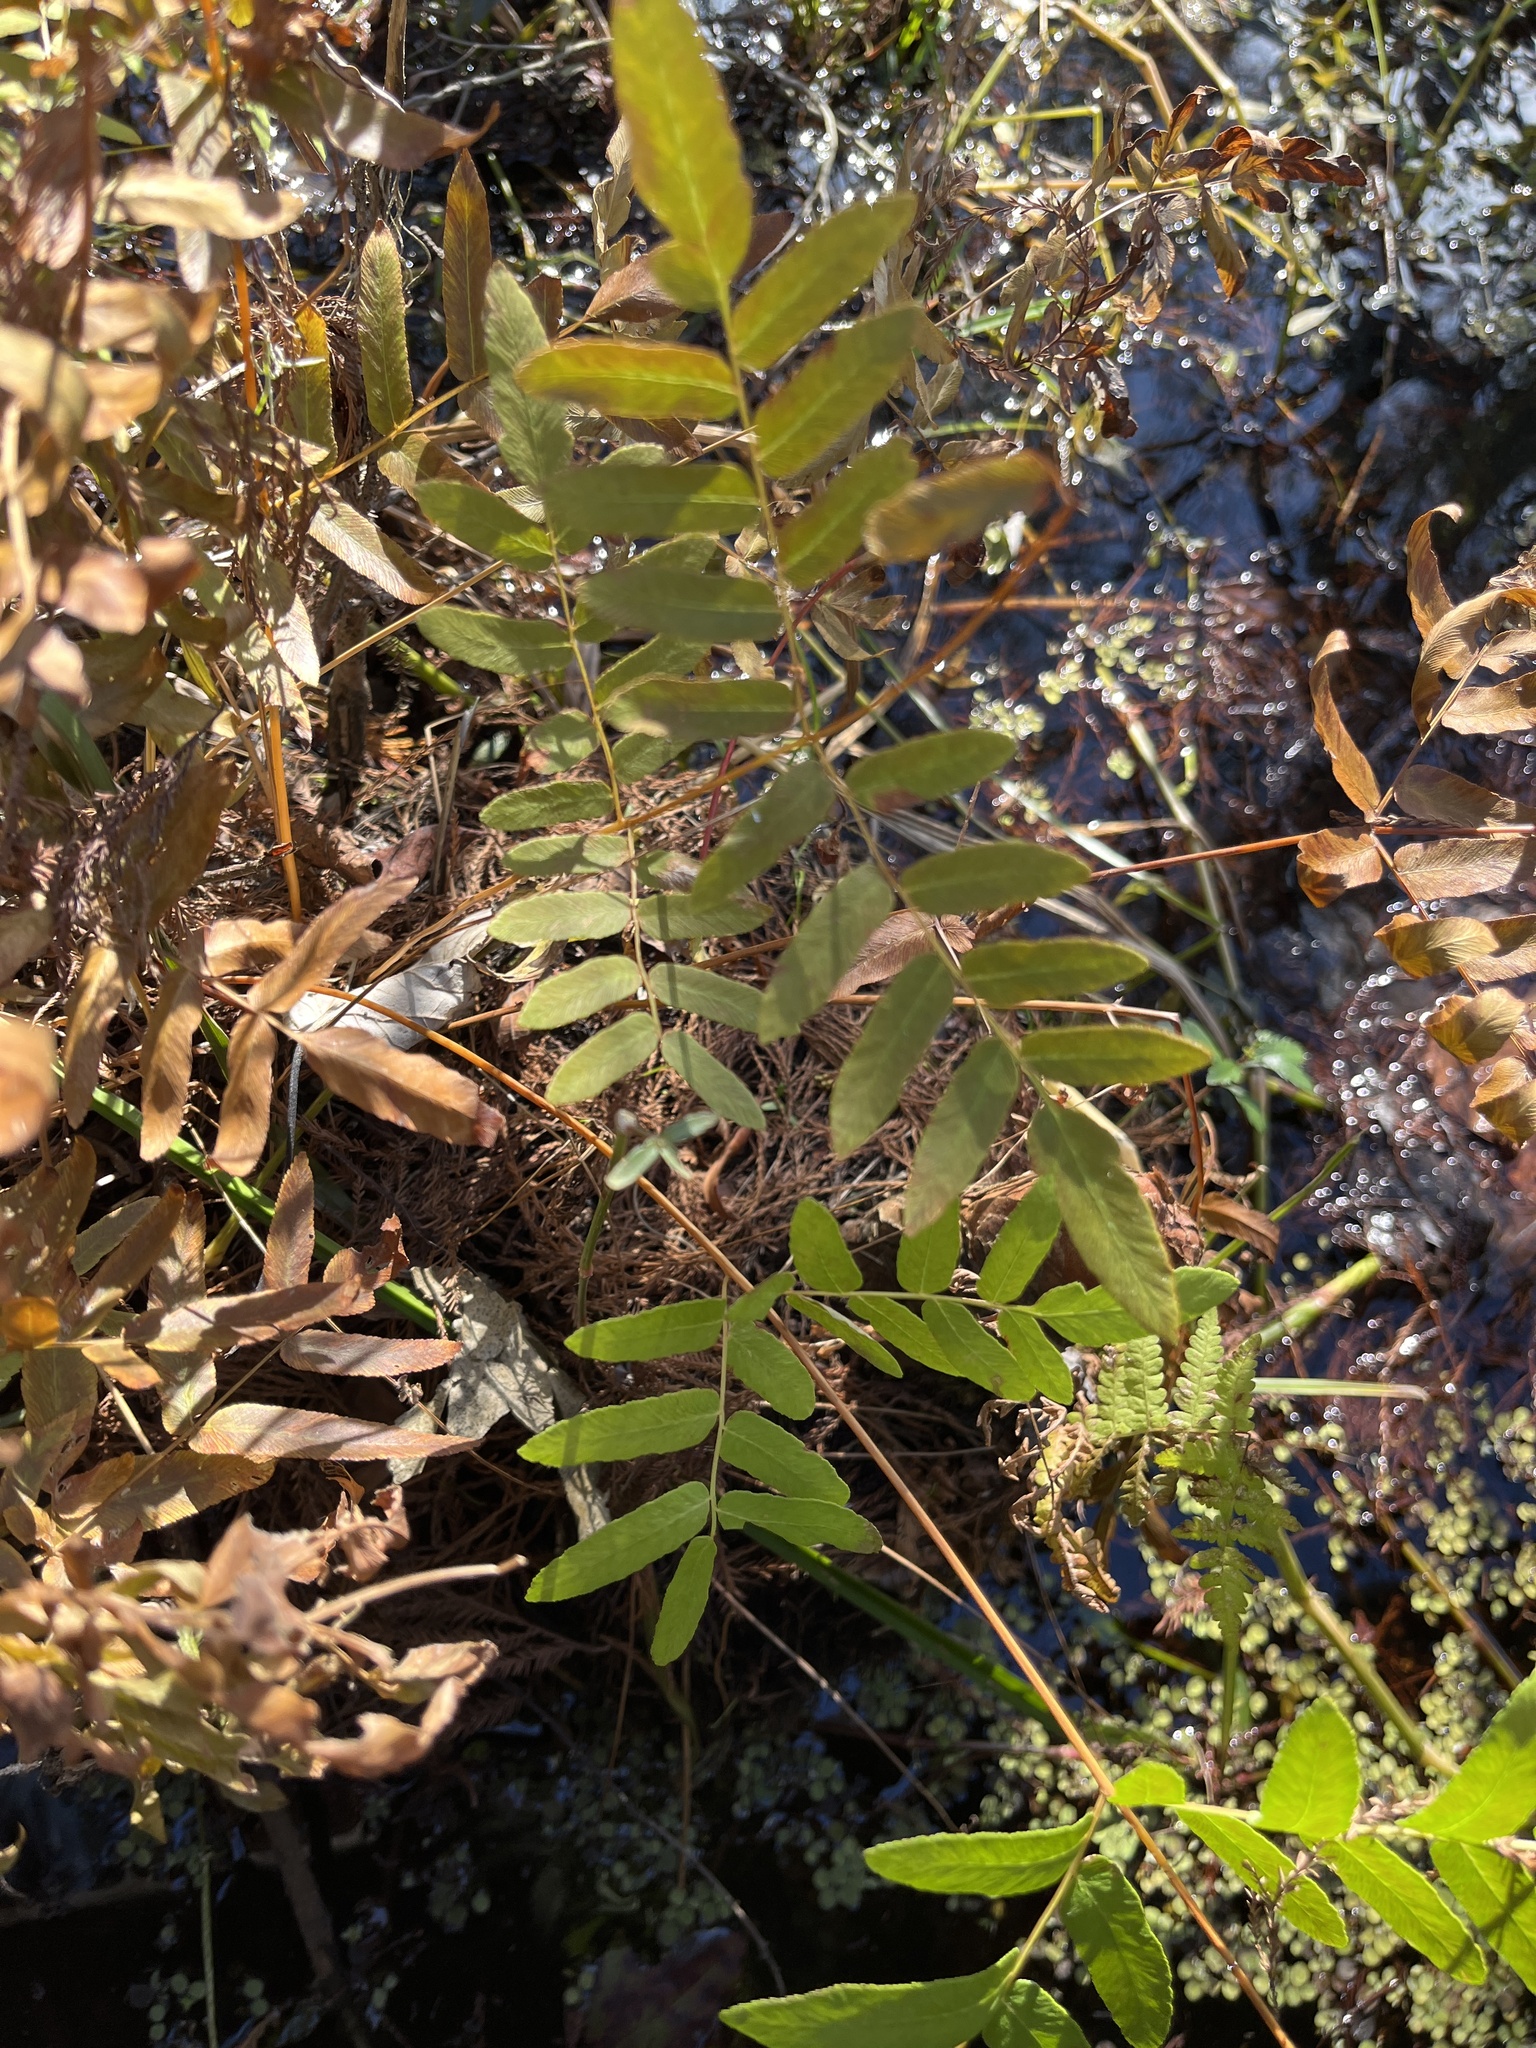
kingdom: Plantae
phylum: Tracheophyta
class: Polypodiopsida
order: Osmundales
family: Osmundaceae
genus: Osmunda
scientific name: Osmunda spectabilis
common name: American royal fern
